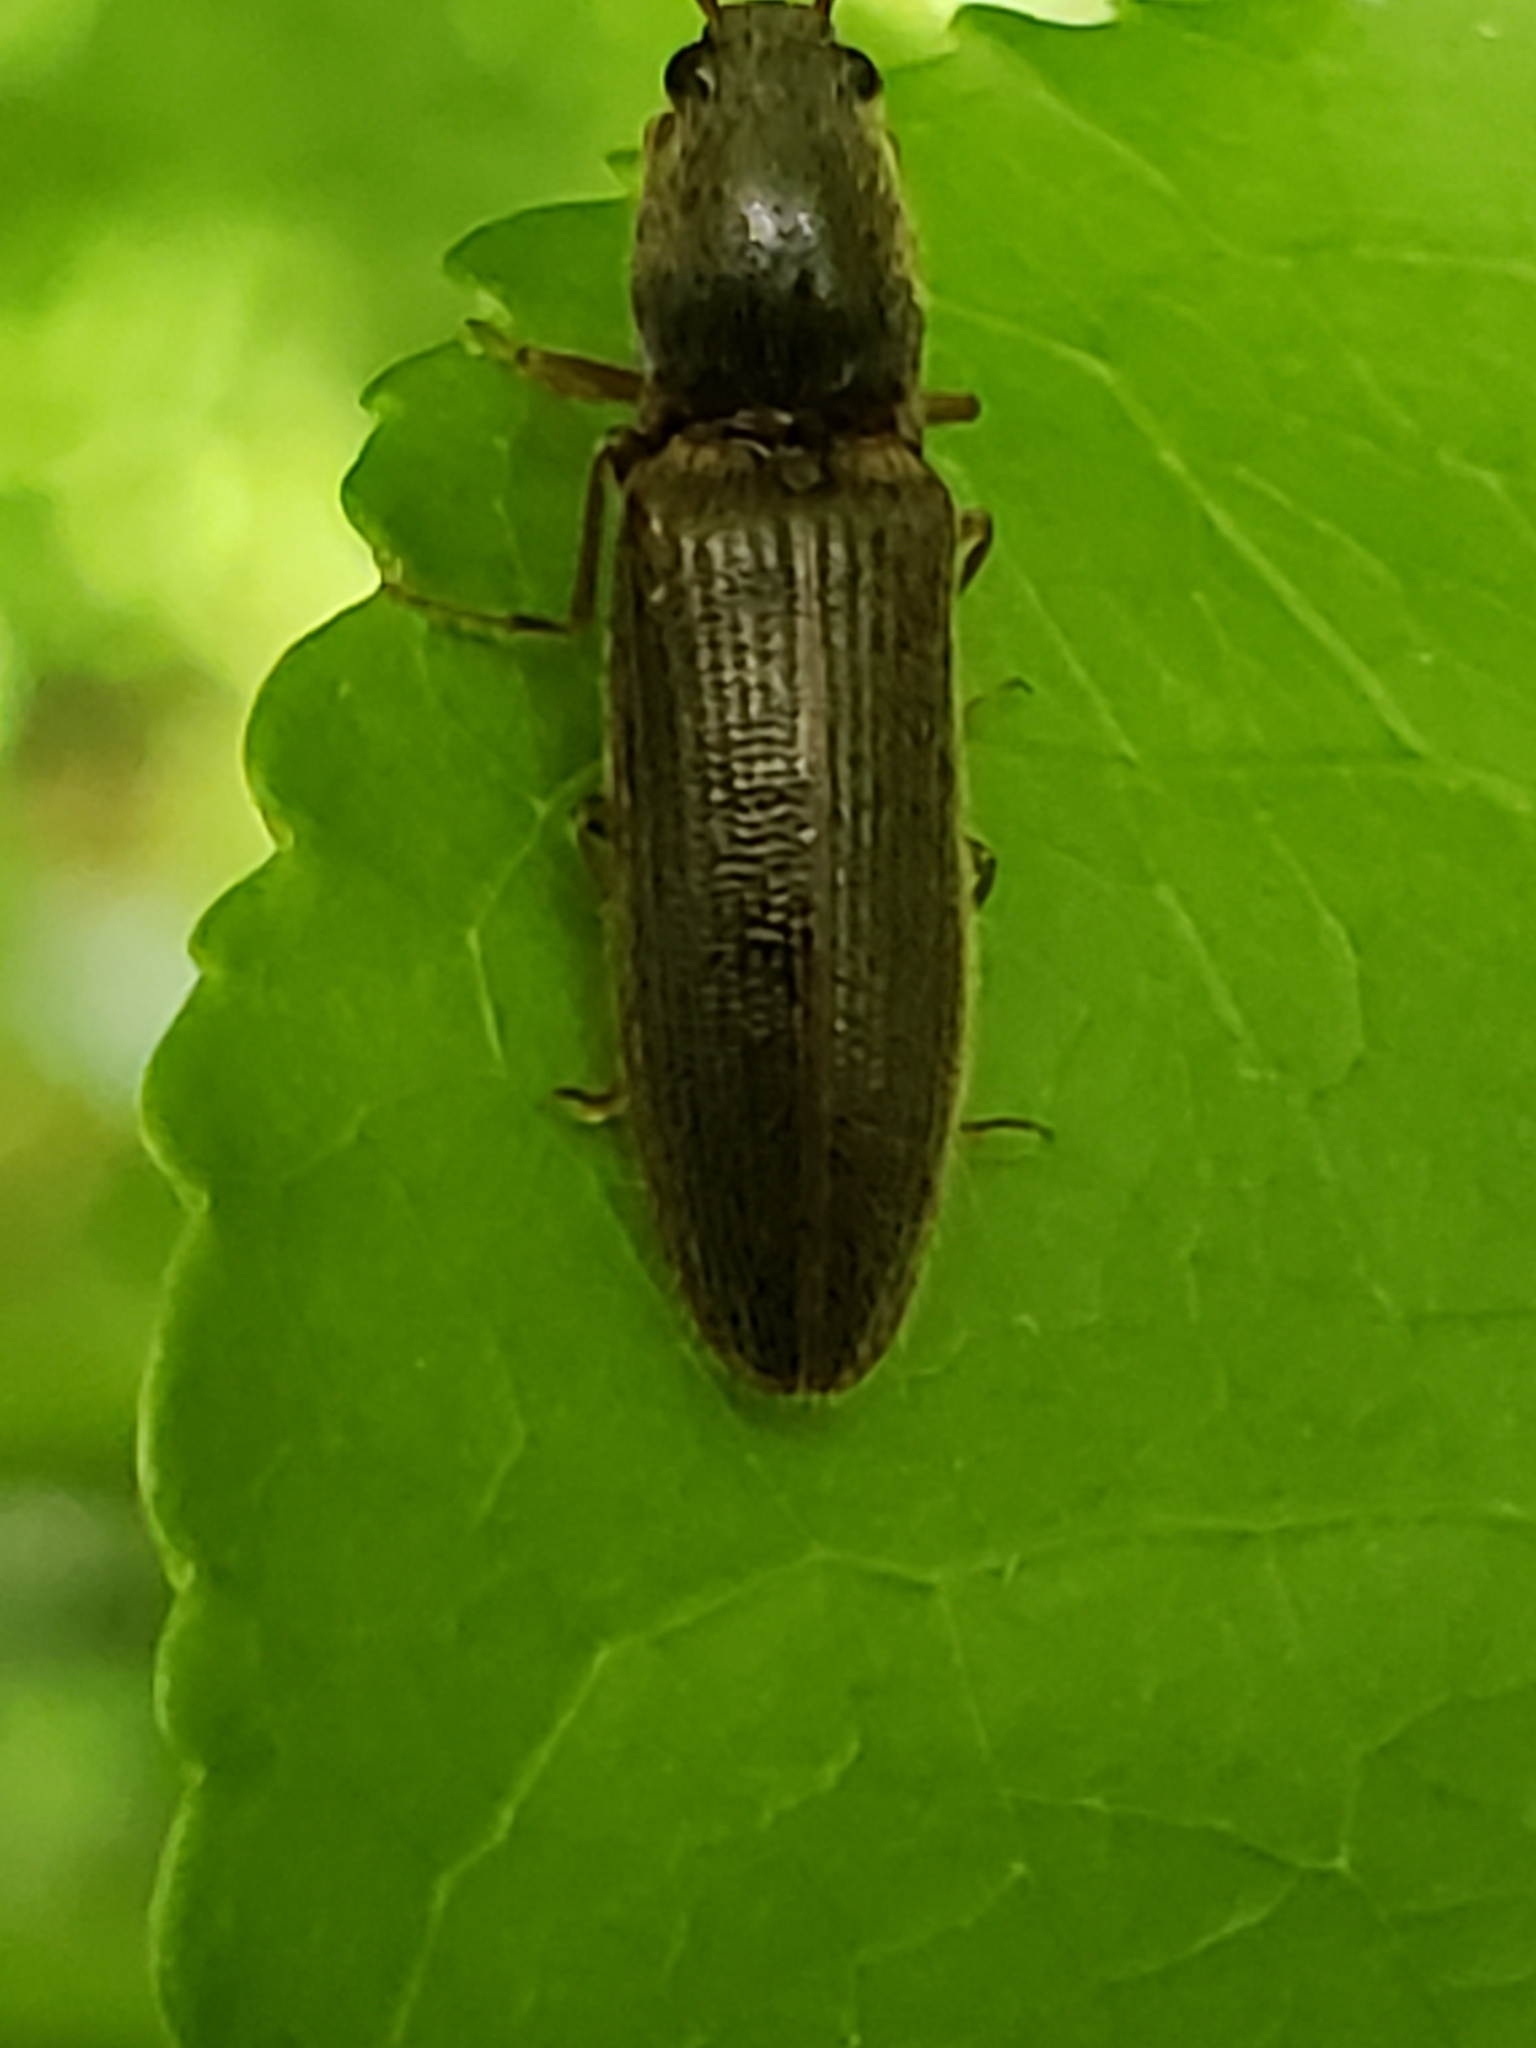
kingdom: Animalia
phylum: Arthropoda
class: Insecta
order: Coleoptera
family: Elateridae
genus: Athous
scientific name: Athous brightwelli
